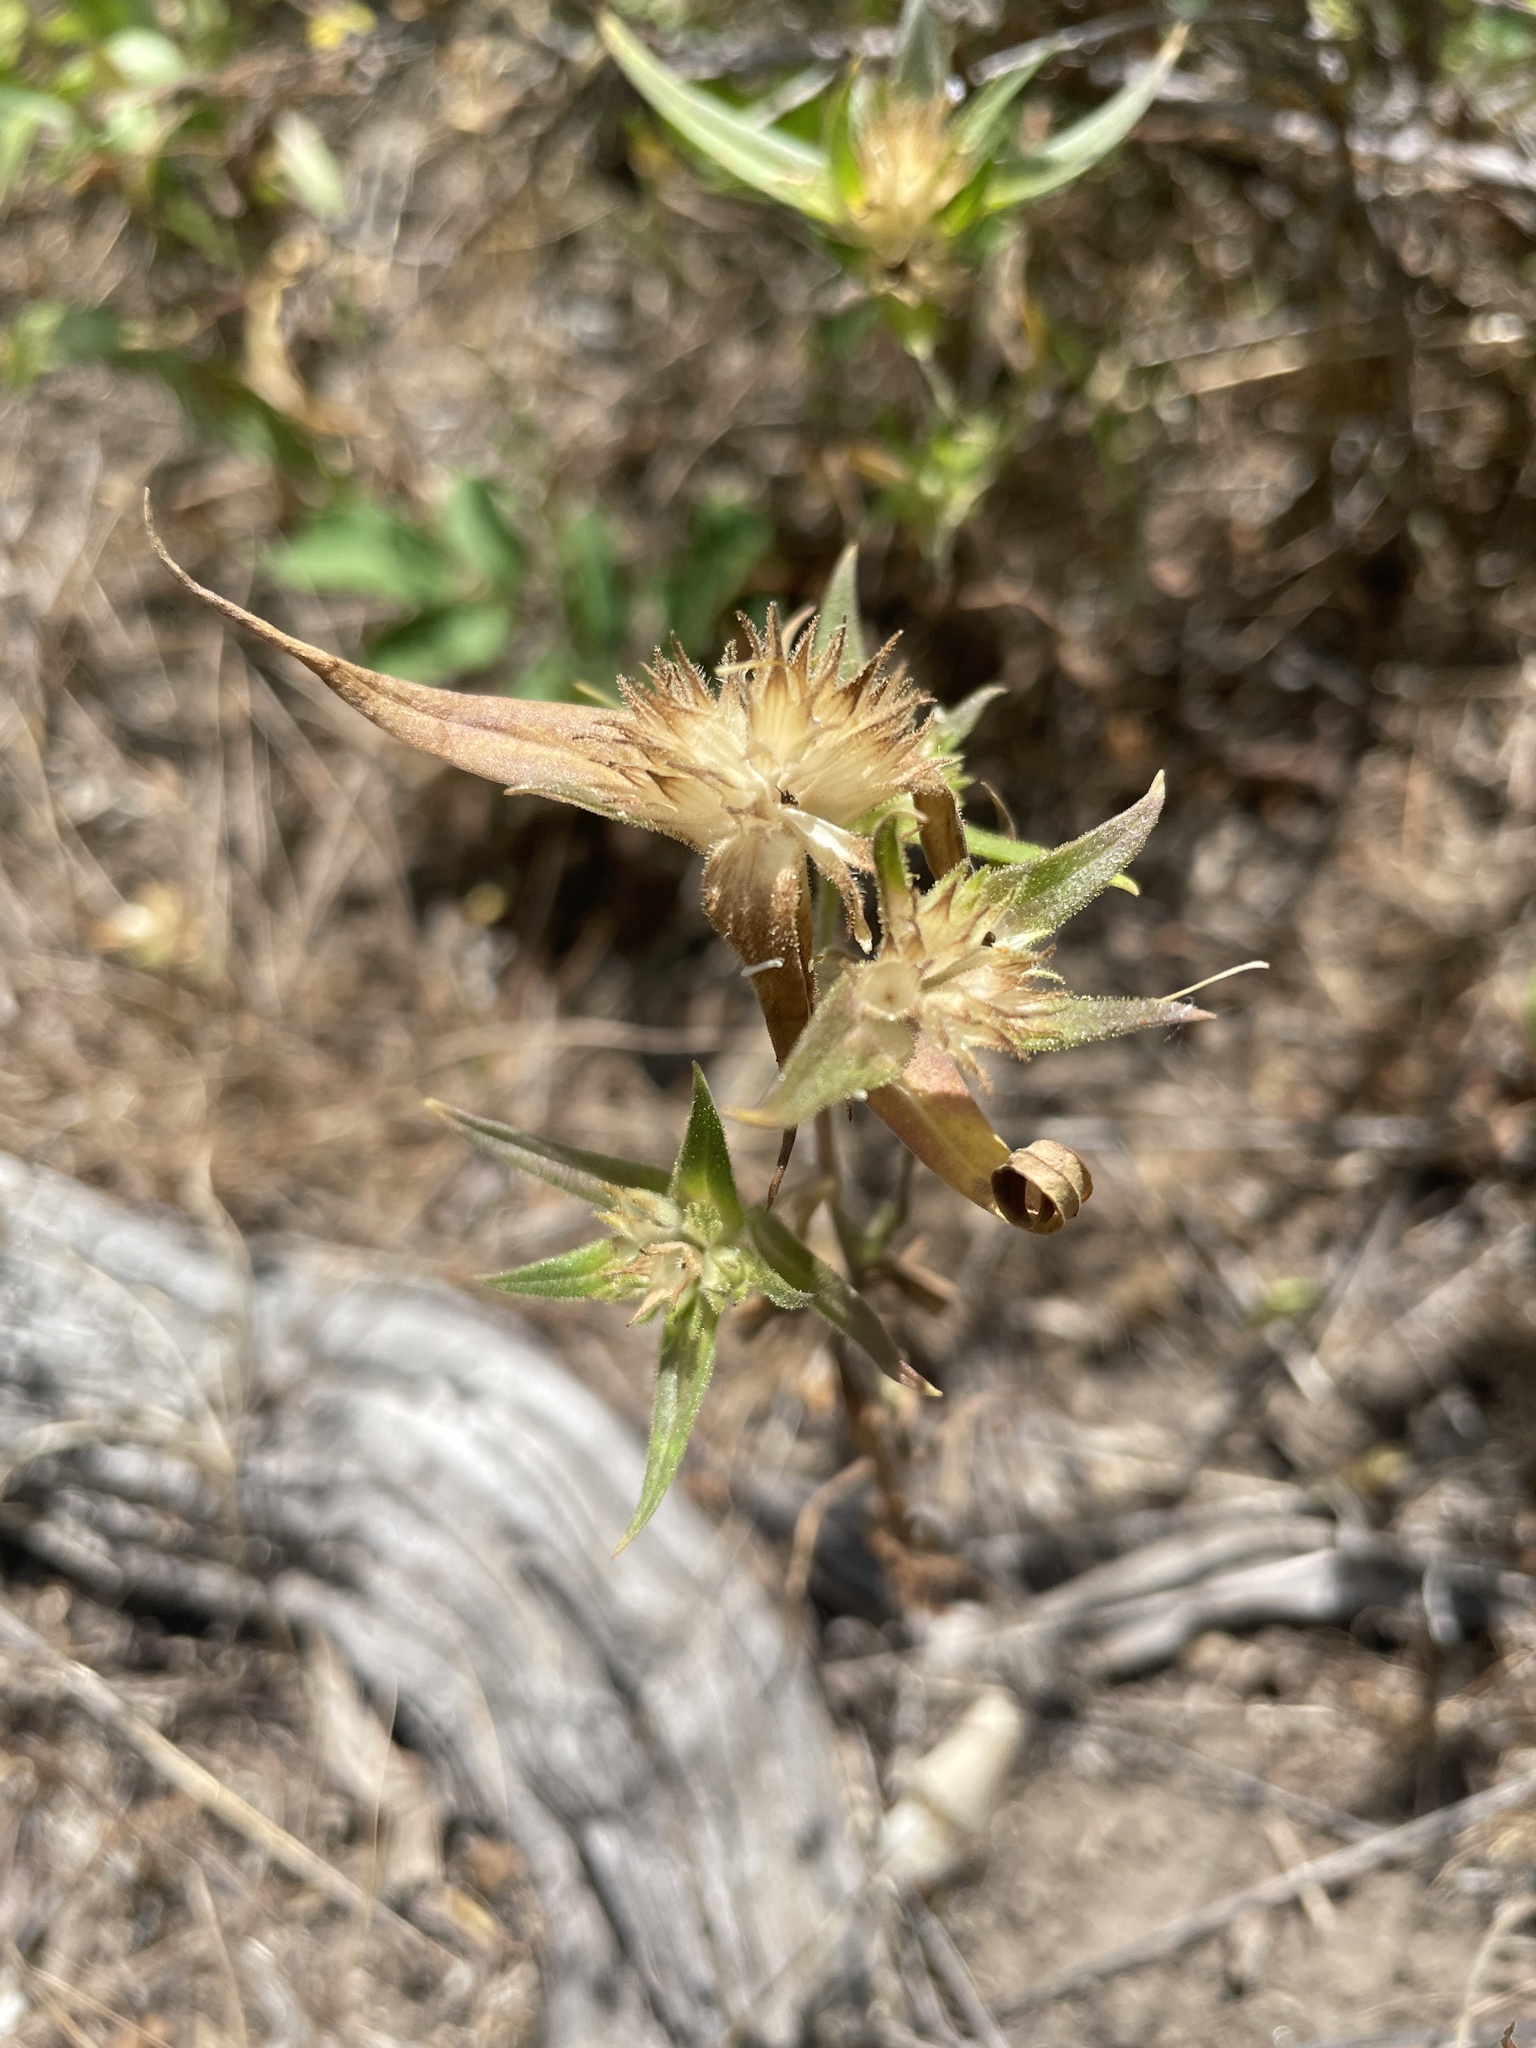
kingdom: Plantae
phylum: Tracheophyta
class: Magnoliopsida
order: Ericales
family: Polemoniaceae
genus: Collomia
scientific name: Collomia linearis
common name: Tiny trumpet
